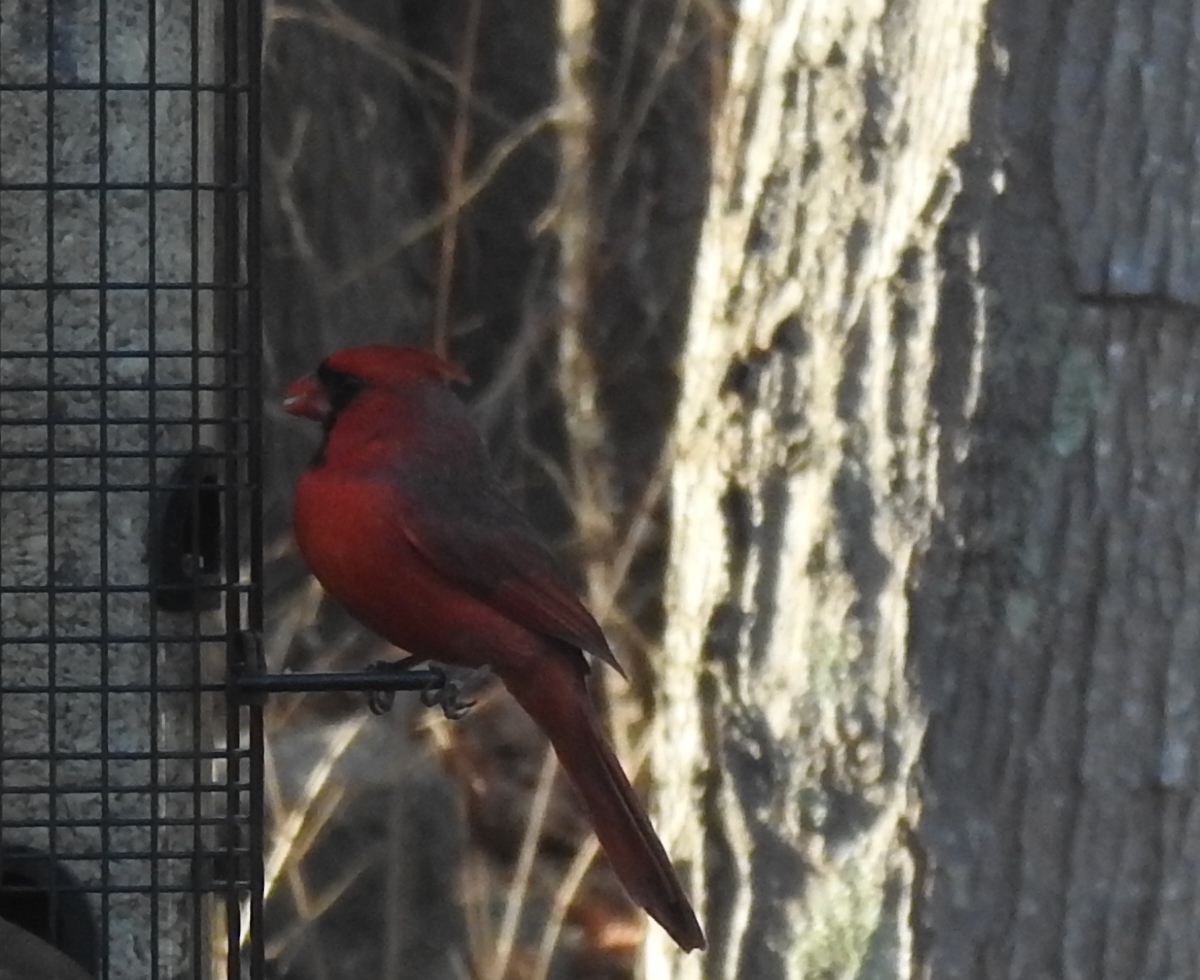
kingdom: Animalia
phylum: Chordata
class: Aves
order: Passeriformes
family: Cardinalidae
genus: Cardinalis
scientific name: Cardinalis cardinalis
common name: Northern cardinal
